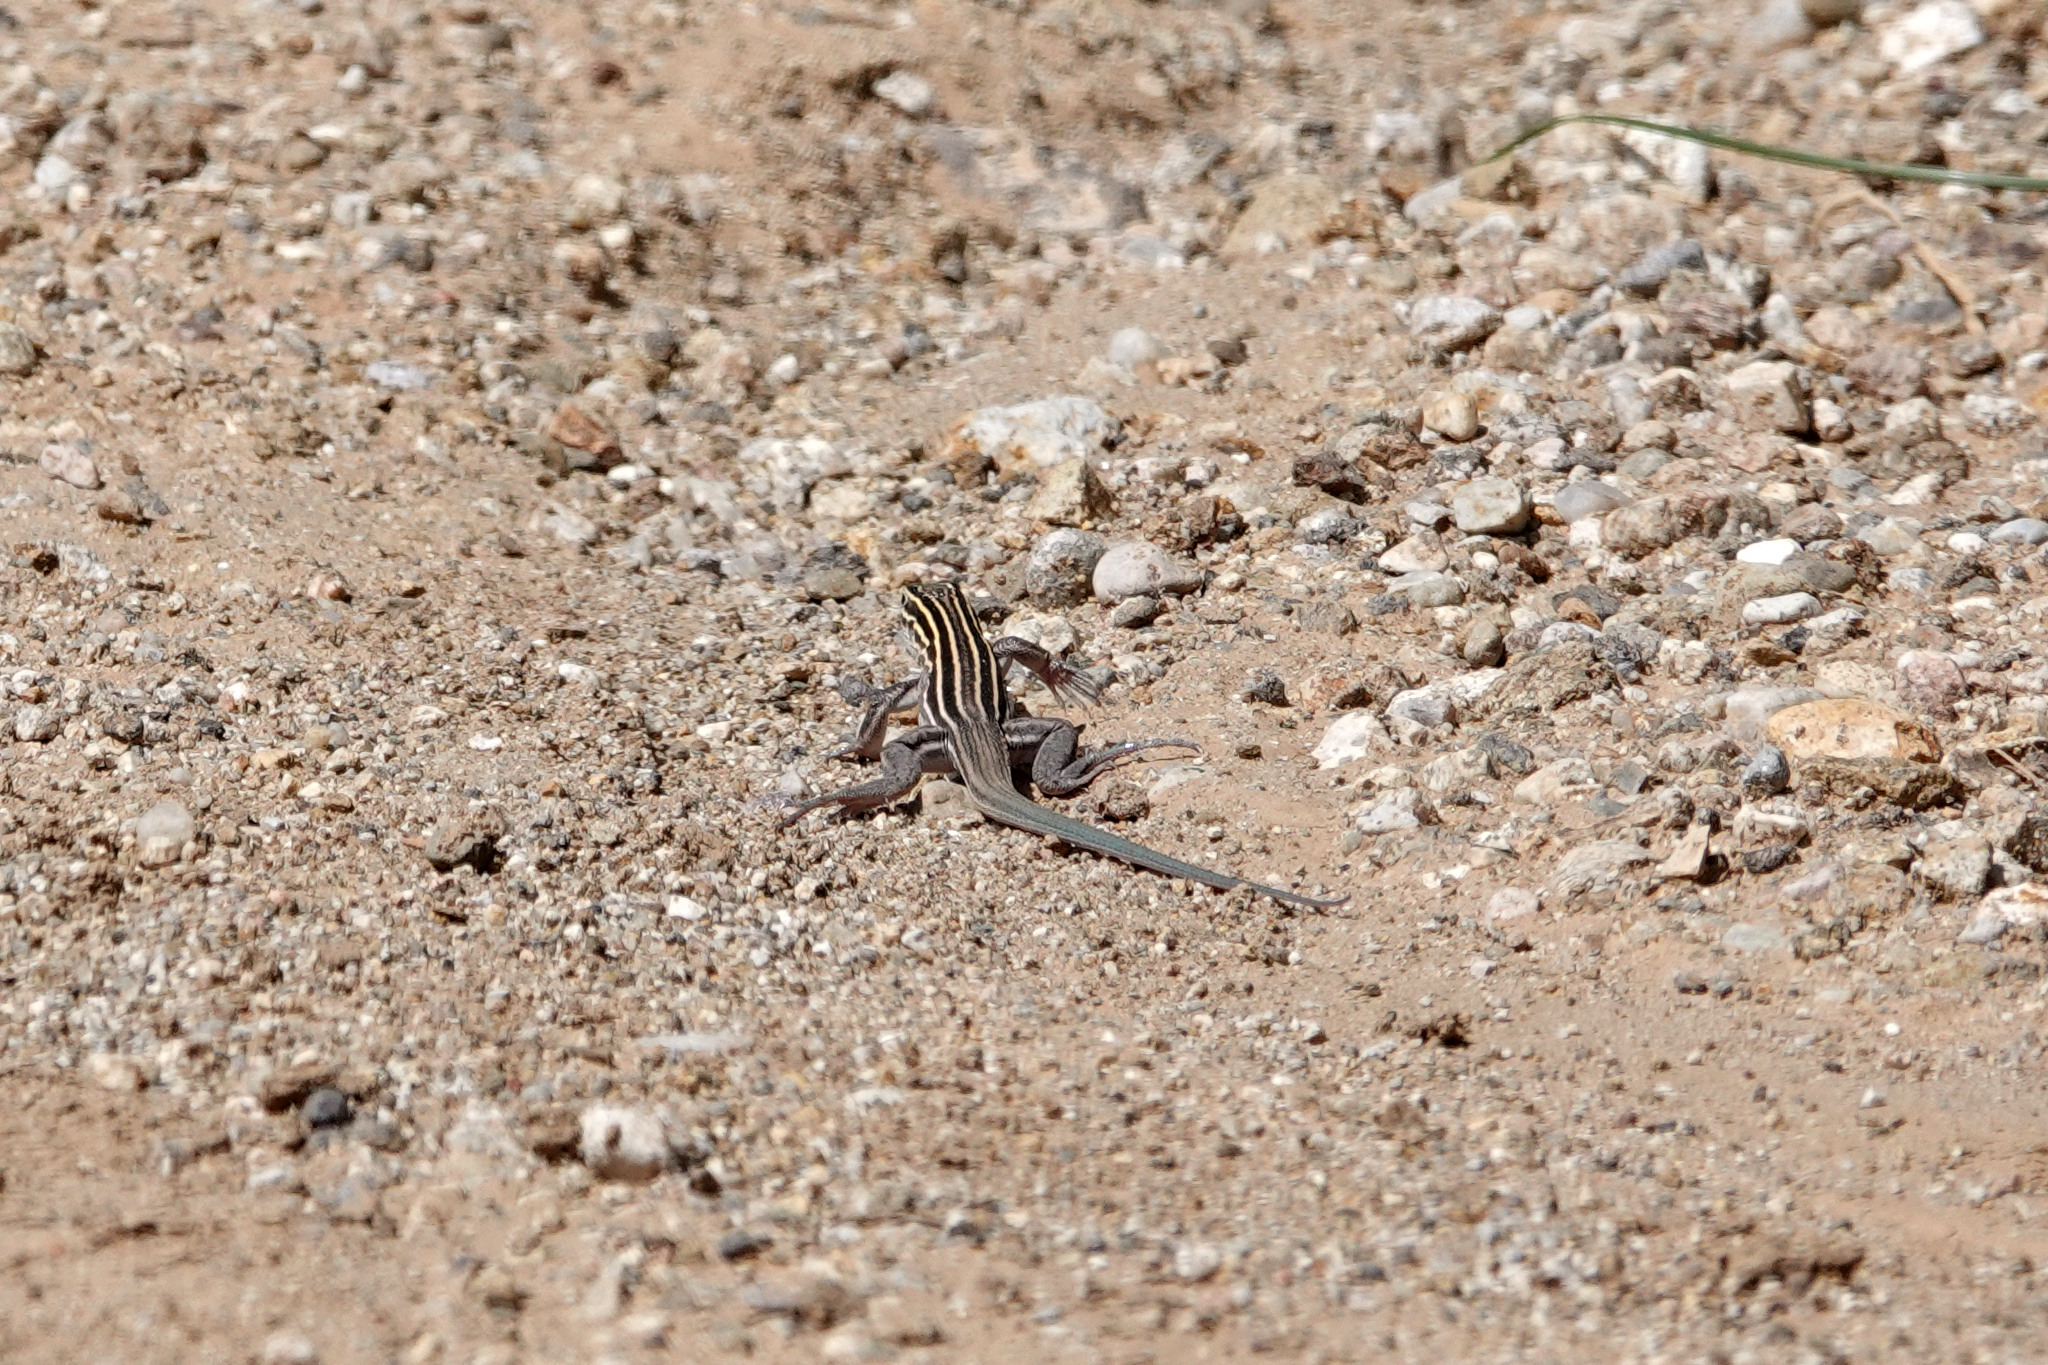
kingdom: Animalia
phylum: Chordata
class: Squamata
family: Teiidae
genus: Aspidoscelis
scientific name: Aspidoscelis velox
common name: Plateau striped whiptail
